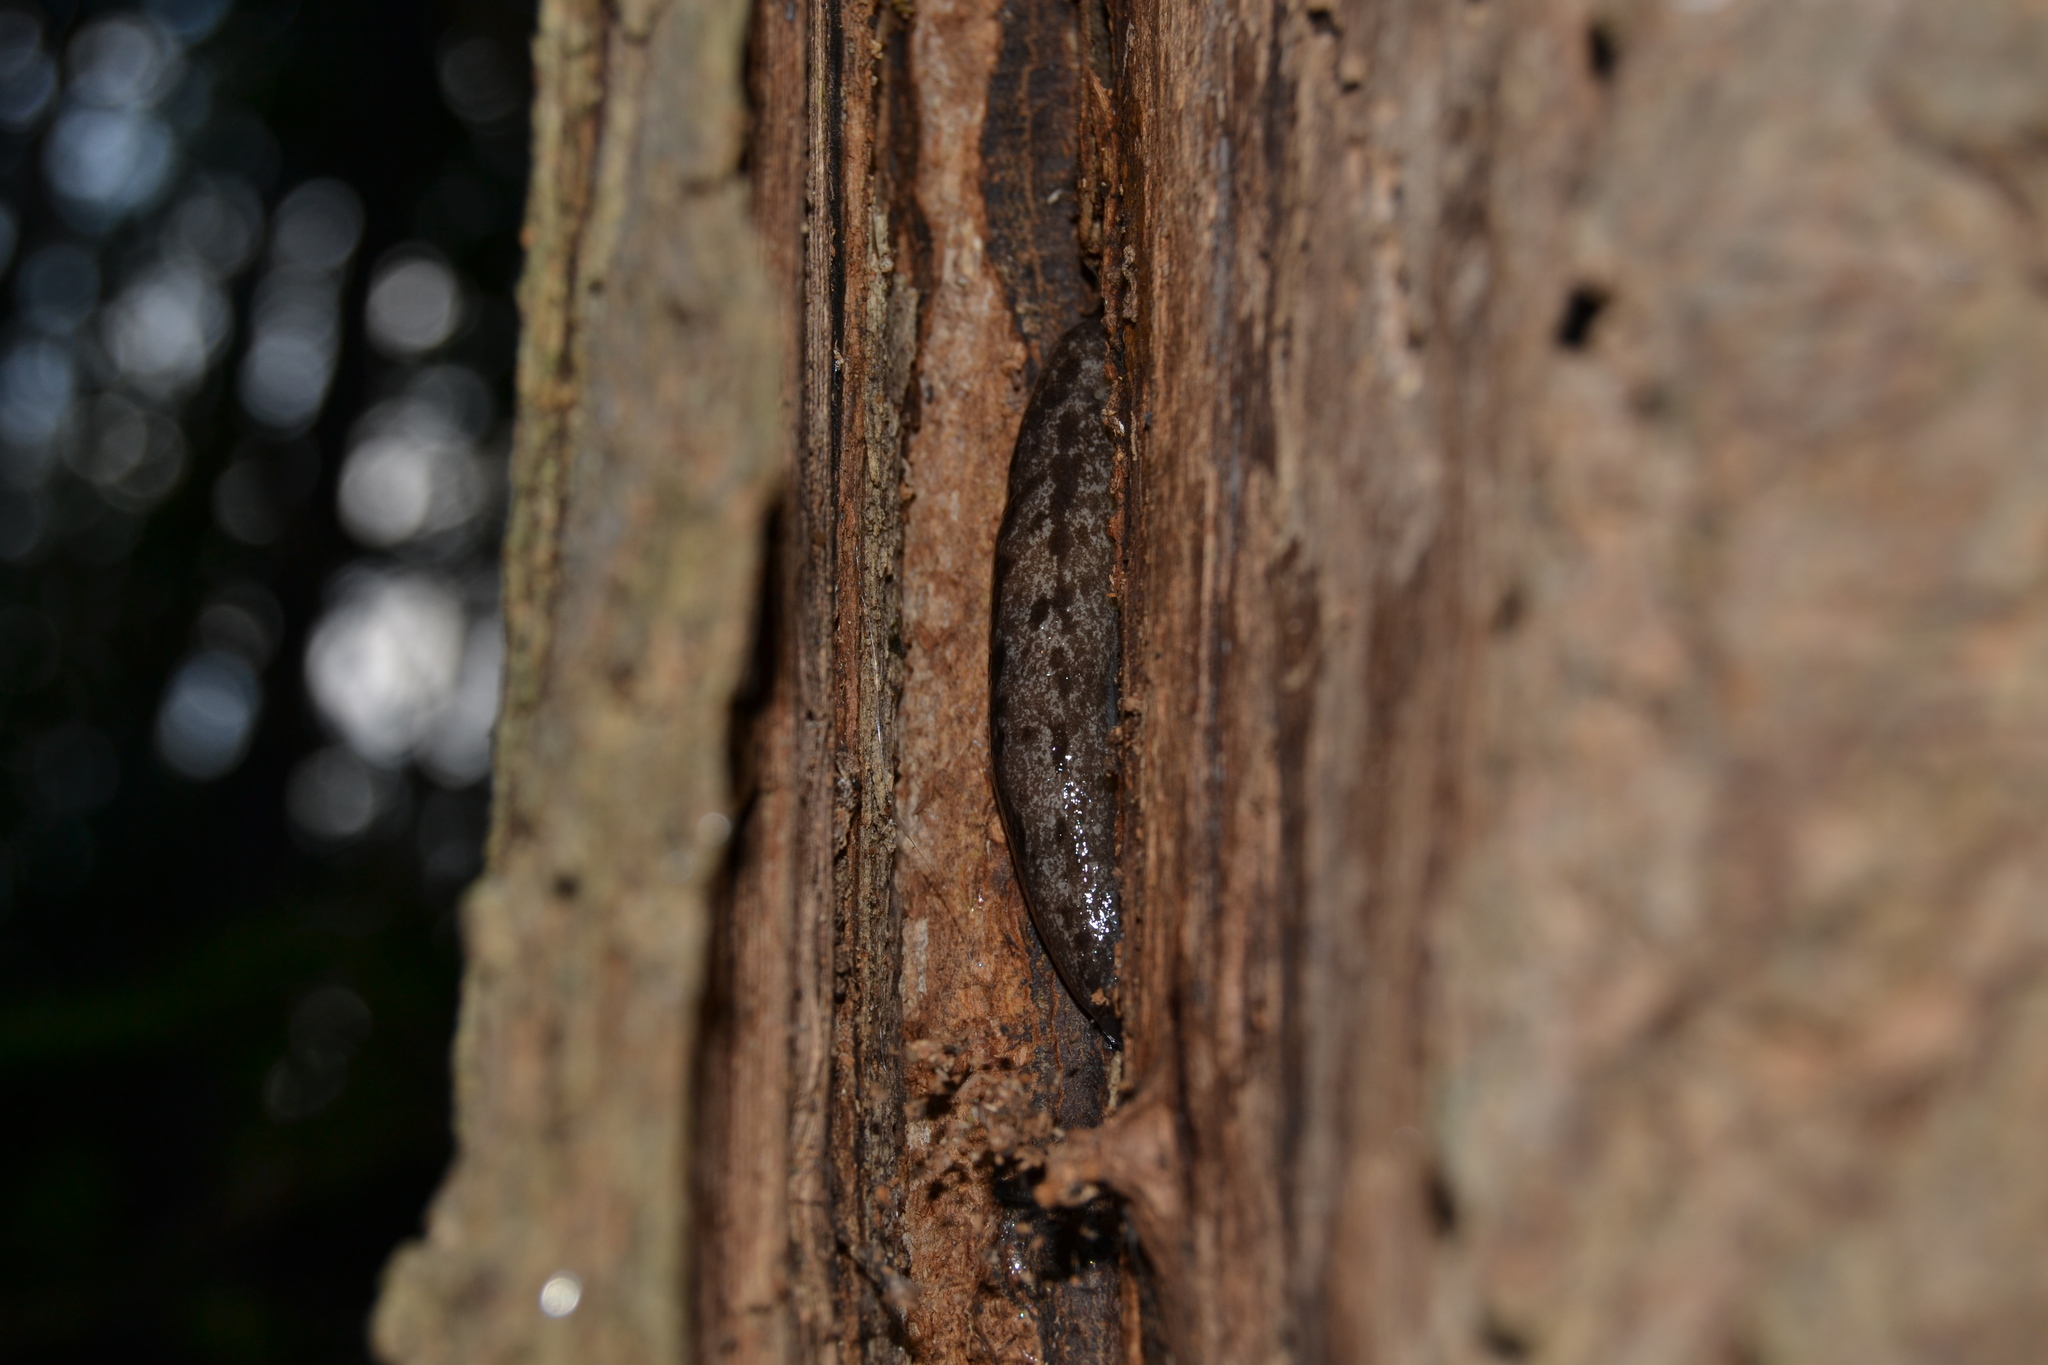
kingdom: Animalia
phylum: Mollusca
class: Gastropoda
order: Stylommatophora
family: Philomycidae
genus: Megapallifera
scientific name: Megapallifera mutabilis
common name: Changeable mantleslug
